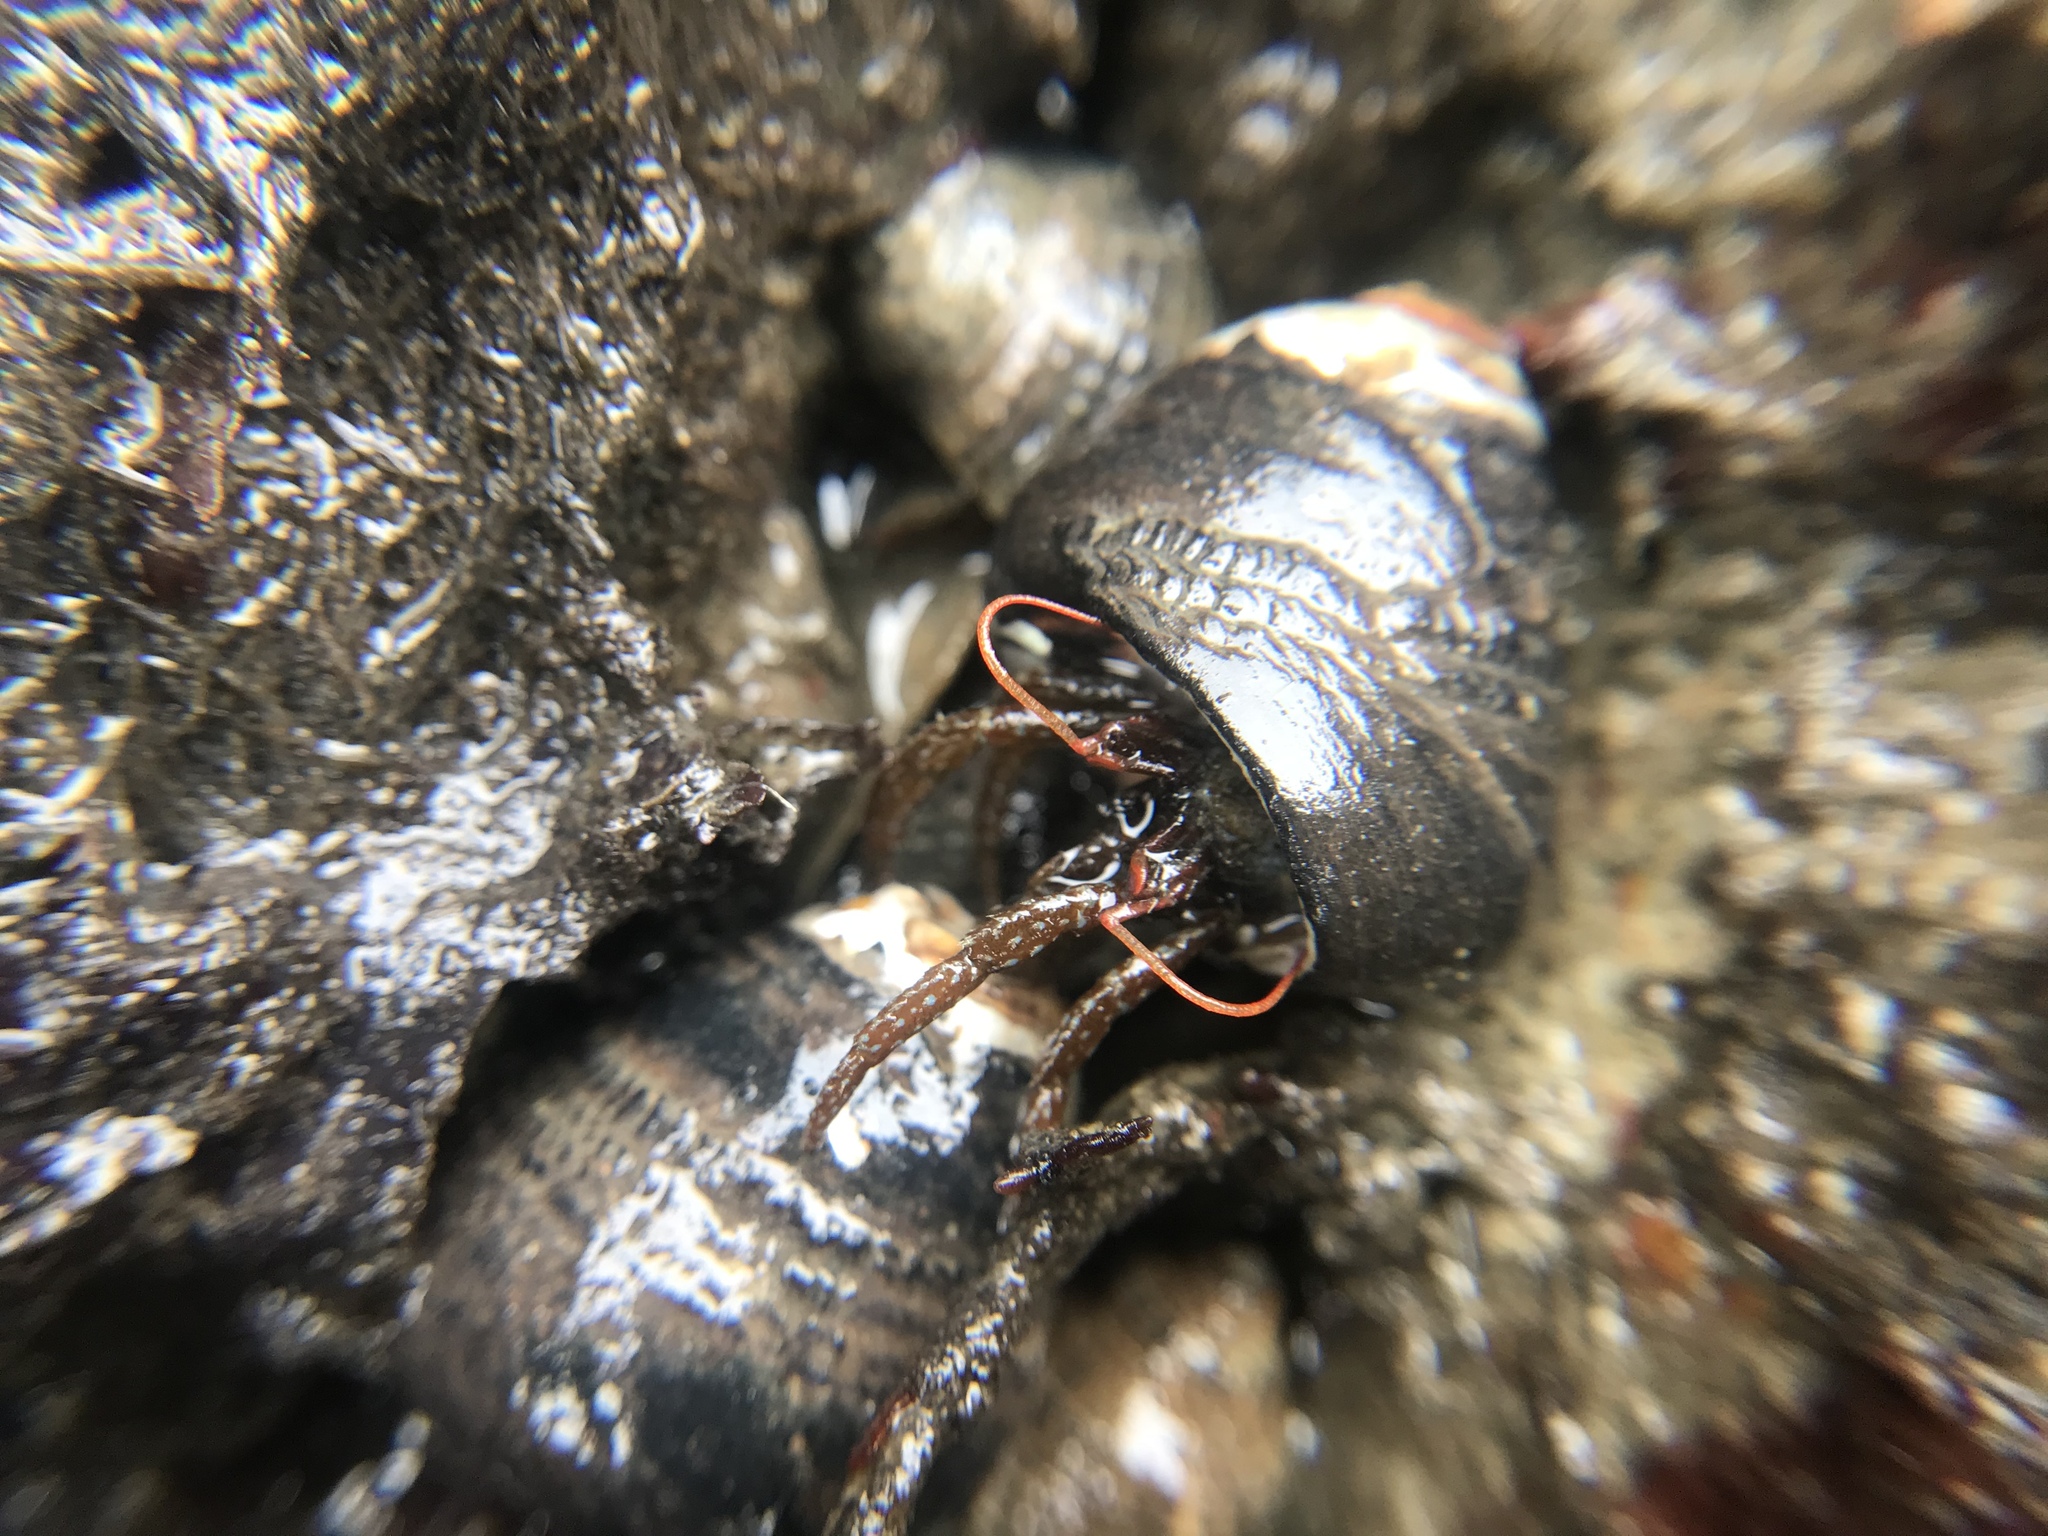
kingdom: Animalia
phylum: Arthropoda
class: Malacostraca
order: Decapoda
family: Paguridae
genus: Pagurus
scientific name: Pagurus granosimanus
